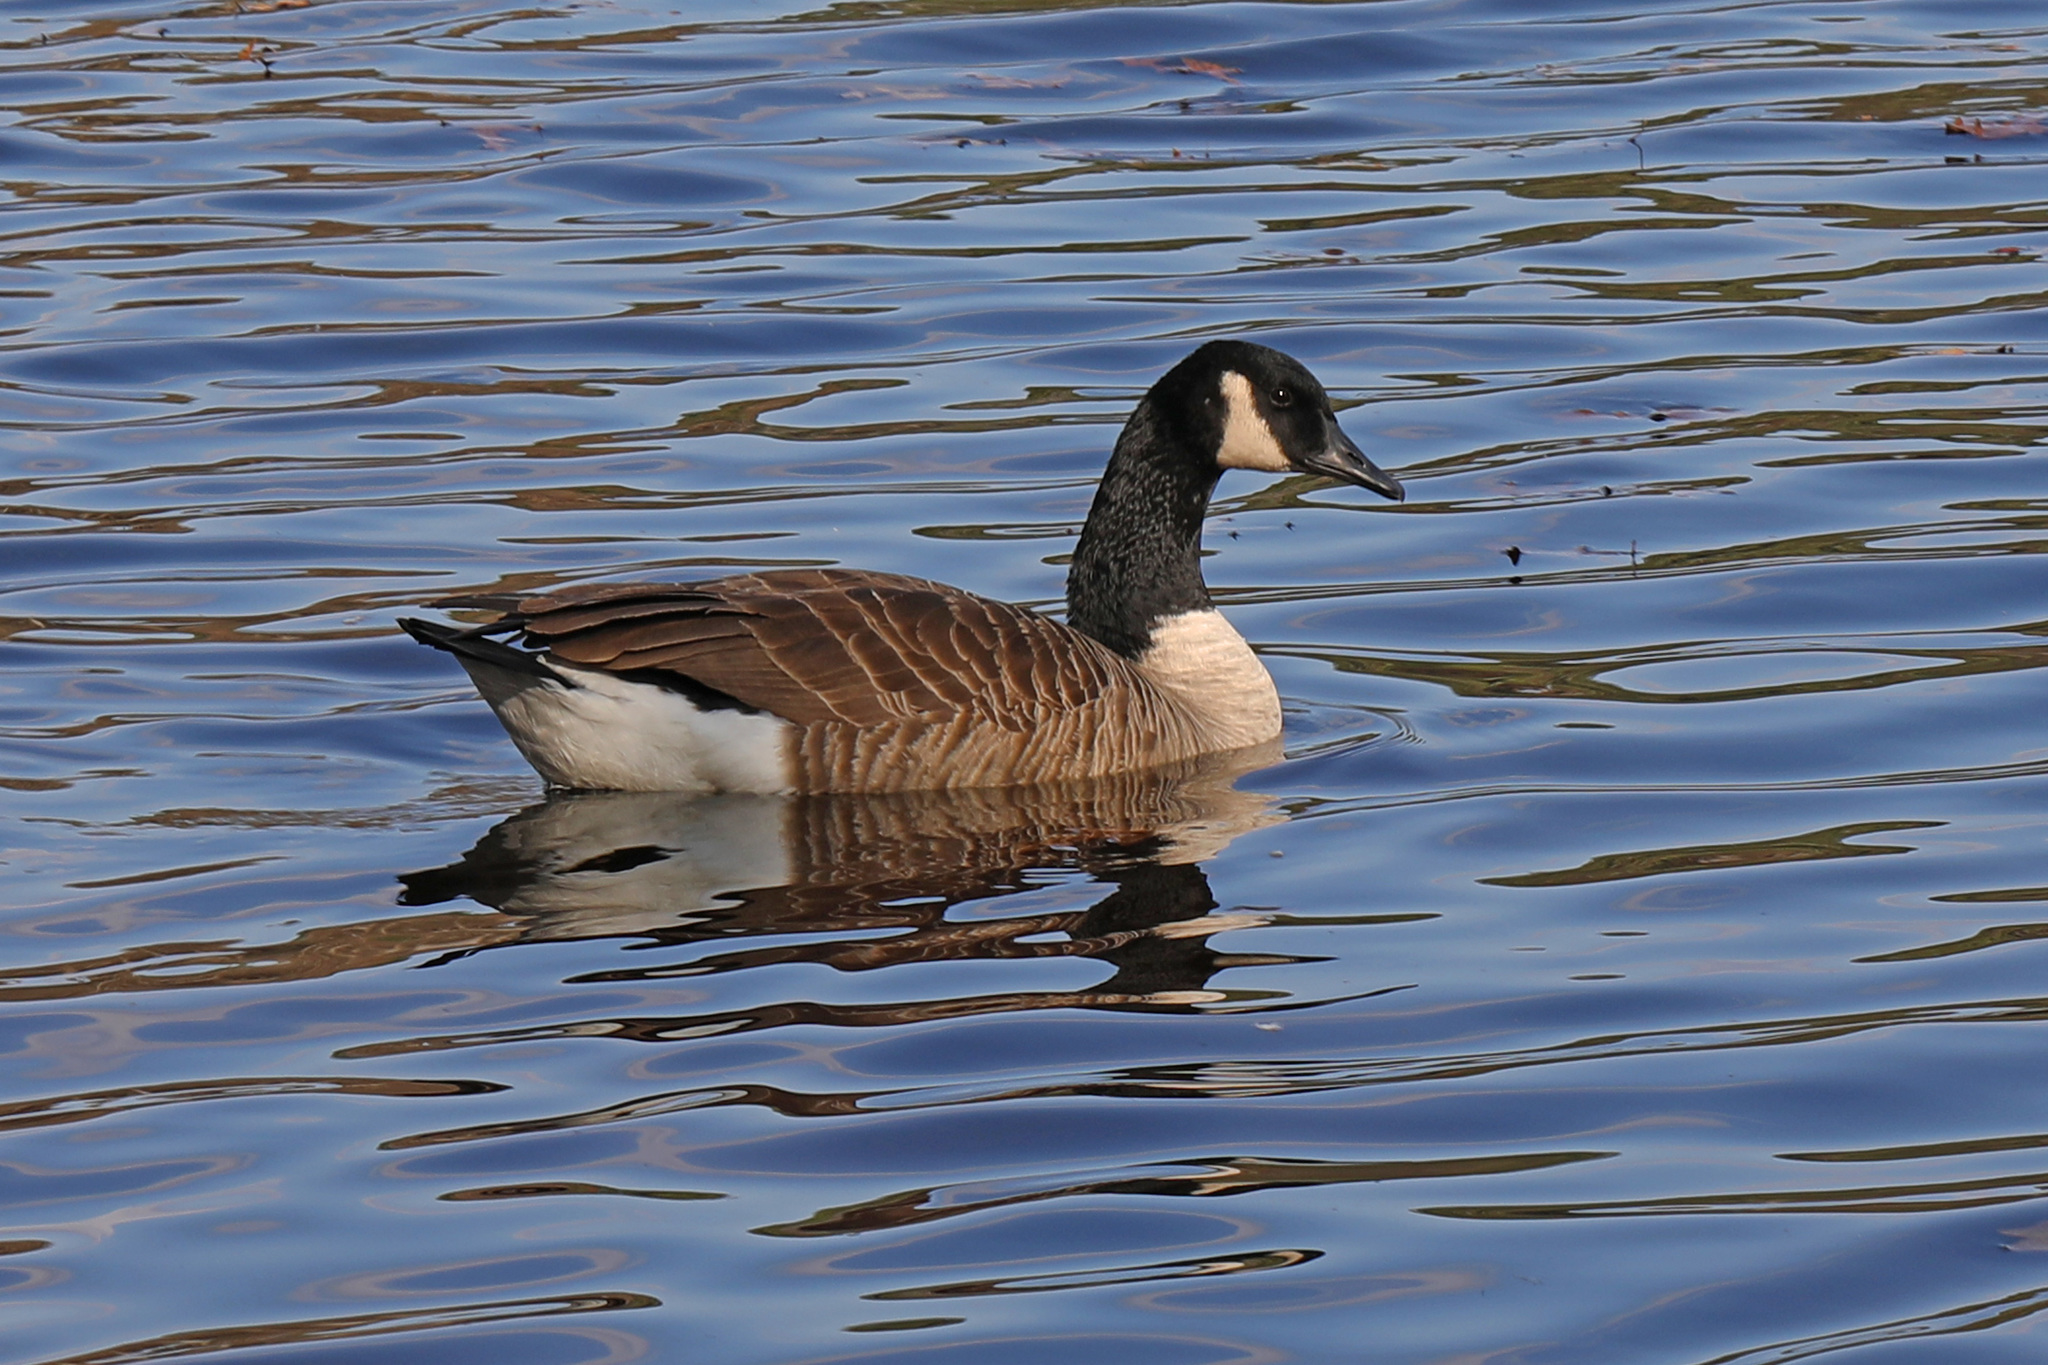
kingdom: Animalia
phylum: Chordata
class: Aves
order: Anseriformes
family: Anatidae
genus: Branta
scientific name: Branta canadensis
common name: Canada goose
